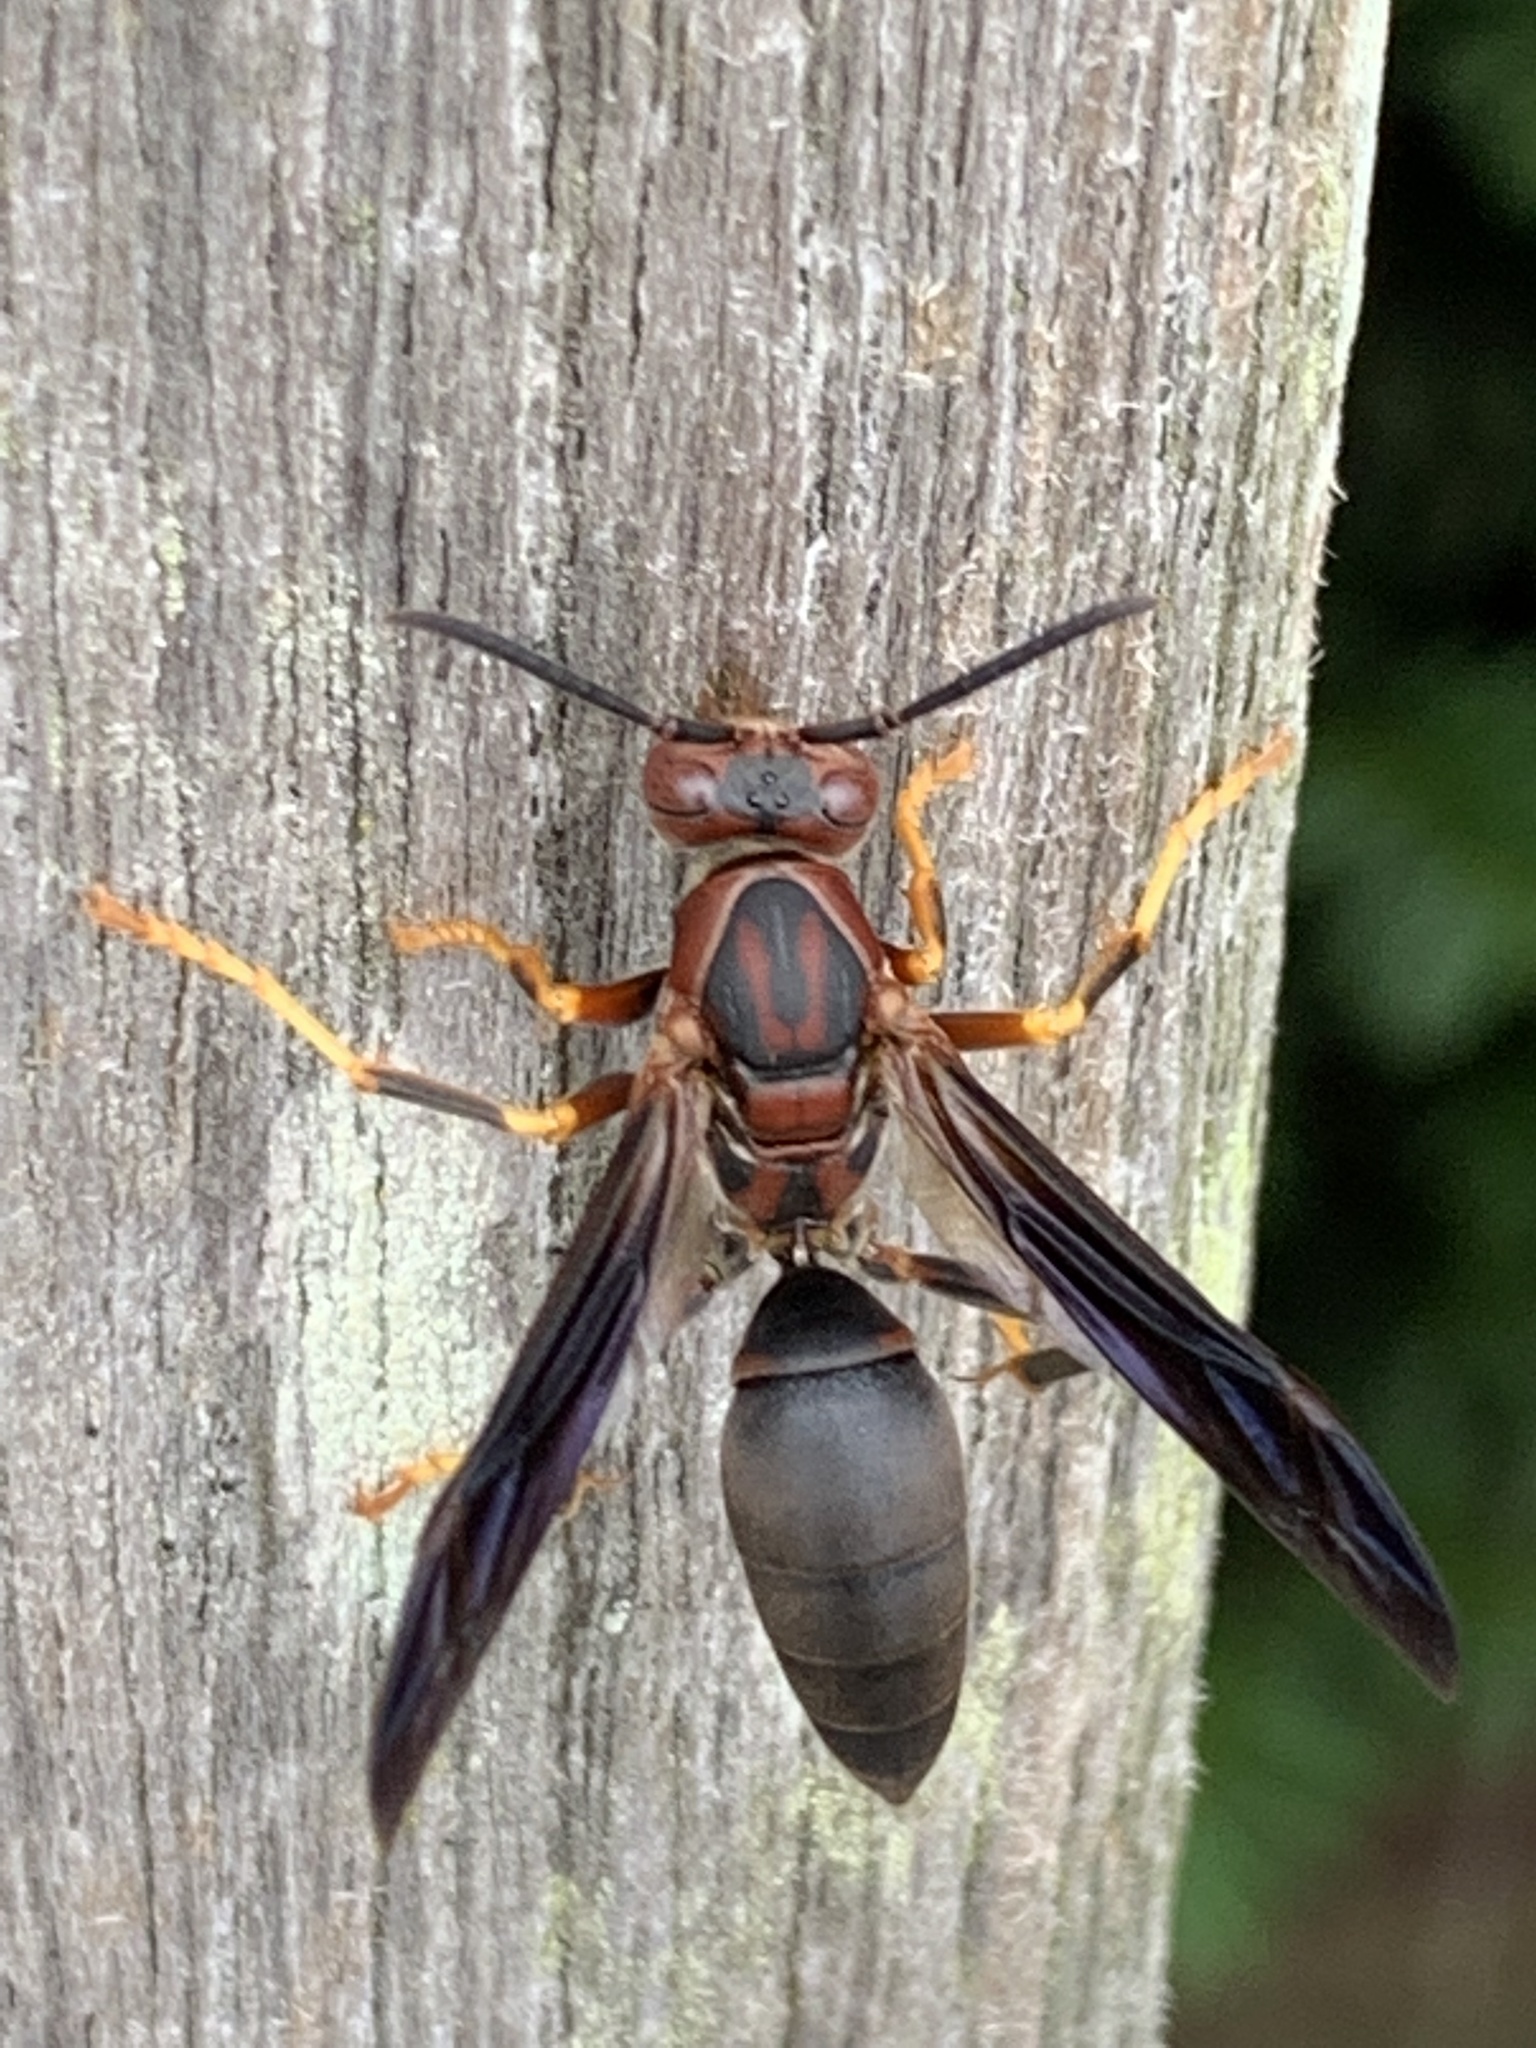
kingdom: Animalia
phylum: Arthropoda
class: Insecta
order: Hymenoptera
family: Eumenidae
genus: Polistes
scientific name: Polistes metricus
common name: Metric paper wasp
